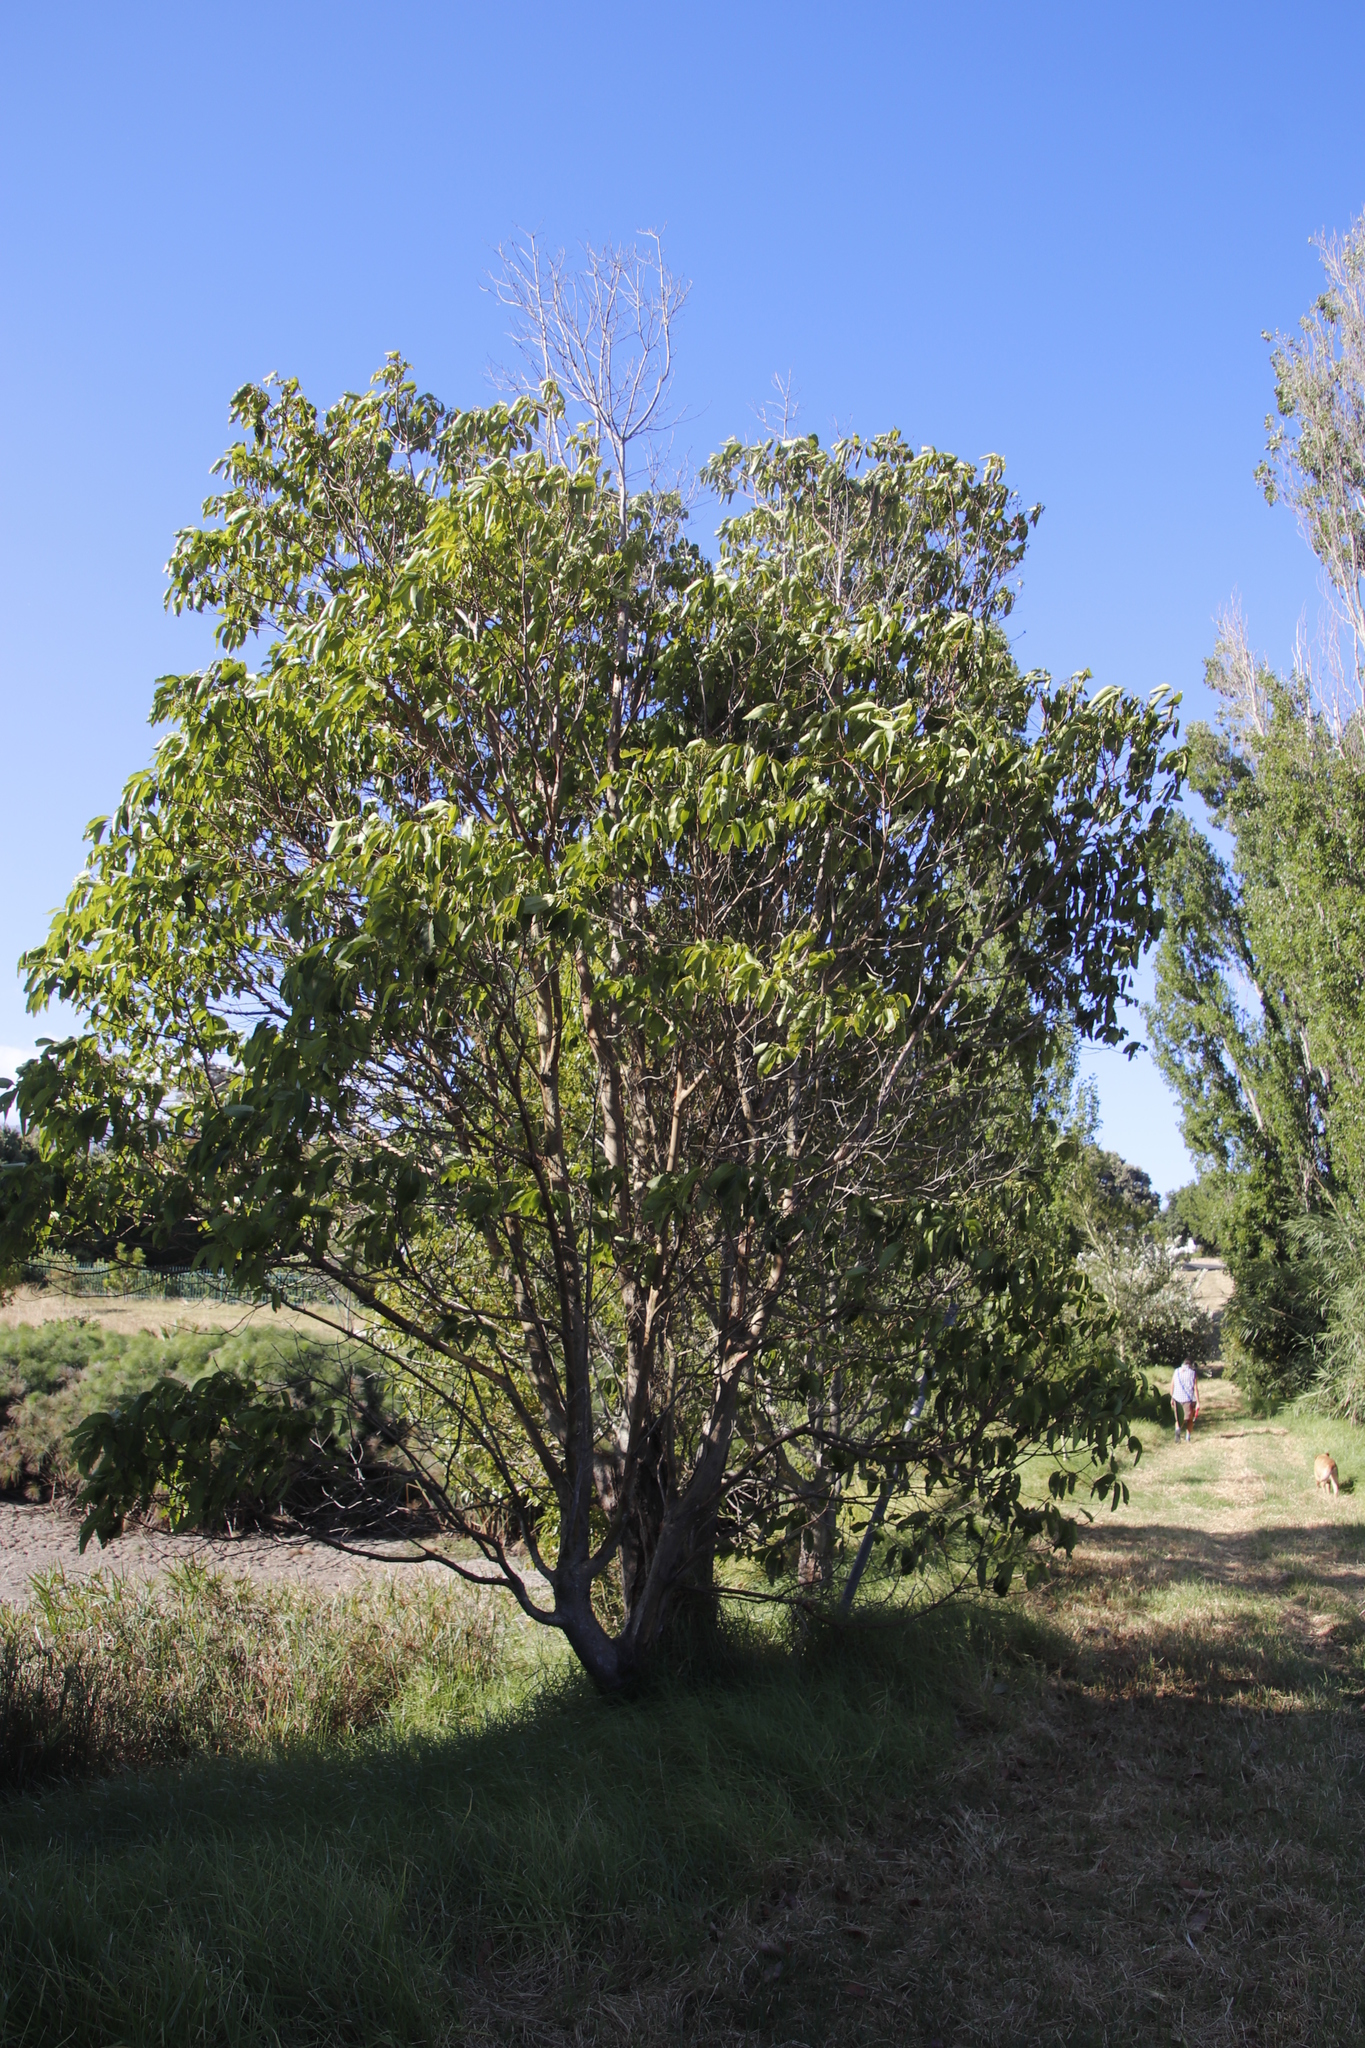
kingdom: Plantae
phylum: Tracheophyta
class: Magnoliopsida
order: Myrtales
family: Myrtaceae
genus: Lophostemon
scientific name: Lophostemon confertus
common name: Brisbane box
